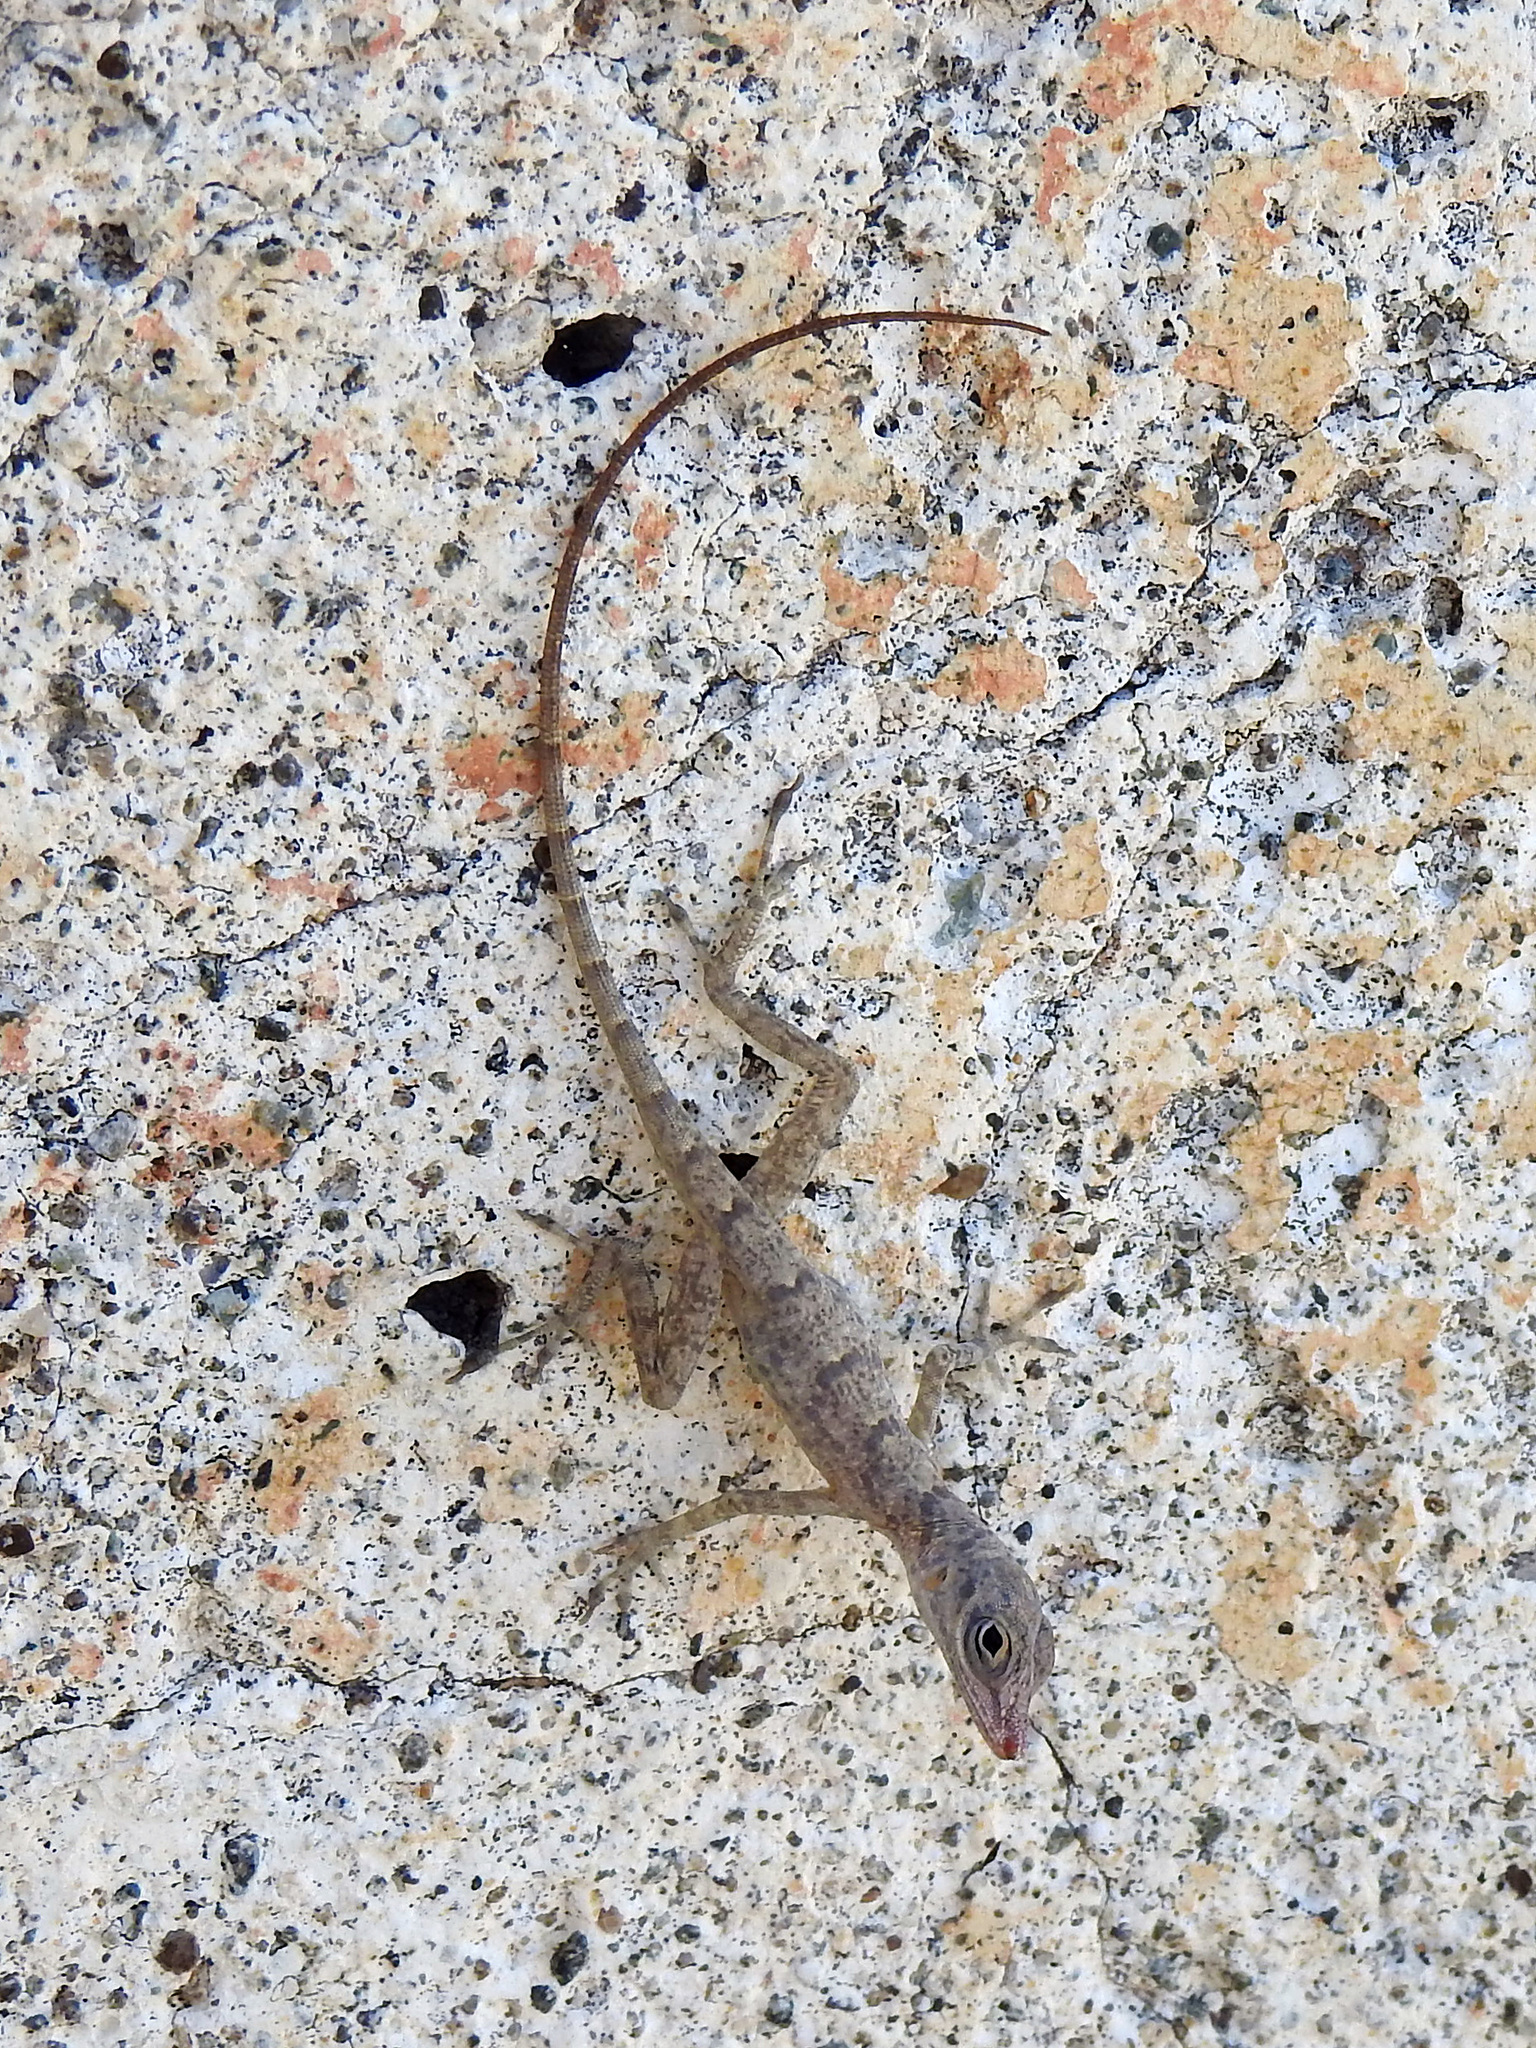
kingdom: Animalia
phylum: Chordata
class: Squamata
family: Dactyloidae
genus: Anolis
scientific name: Anolis argenteolus
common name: Guantanamo anole
